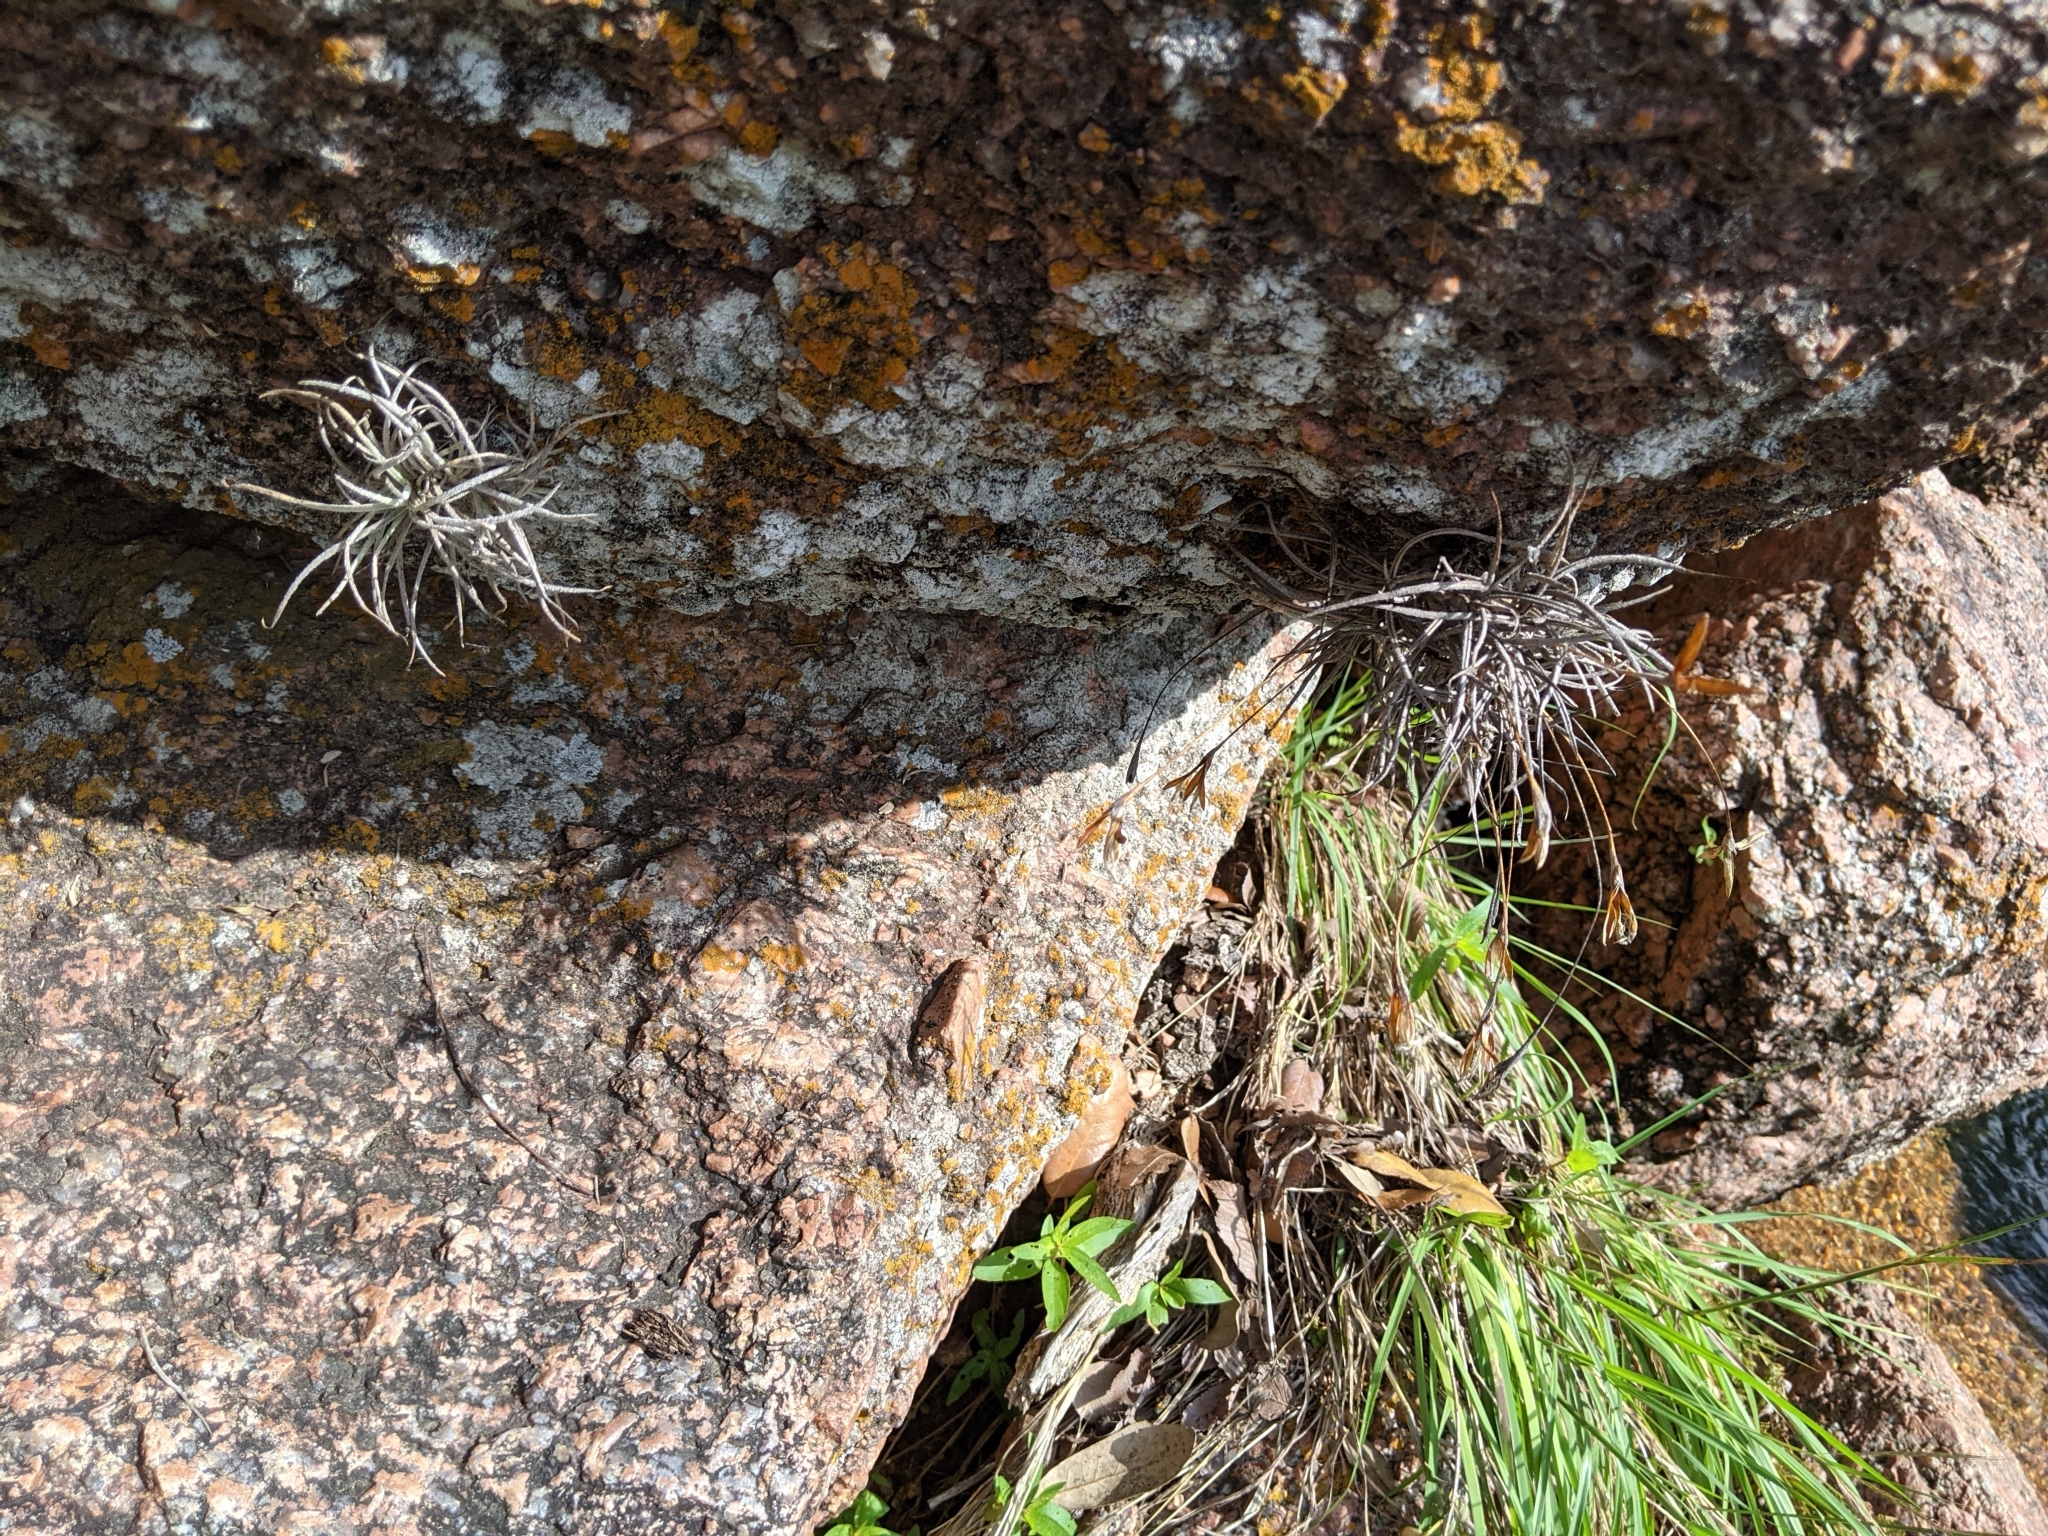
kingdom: Plantae
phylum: Tracheophyta
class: Liliopsida
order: Poales
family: Bromeliaceae
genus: Tillandsia
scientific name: Tillandsia recurvata
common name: Small ballmoss
